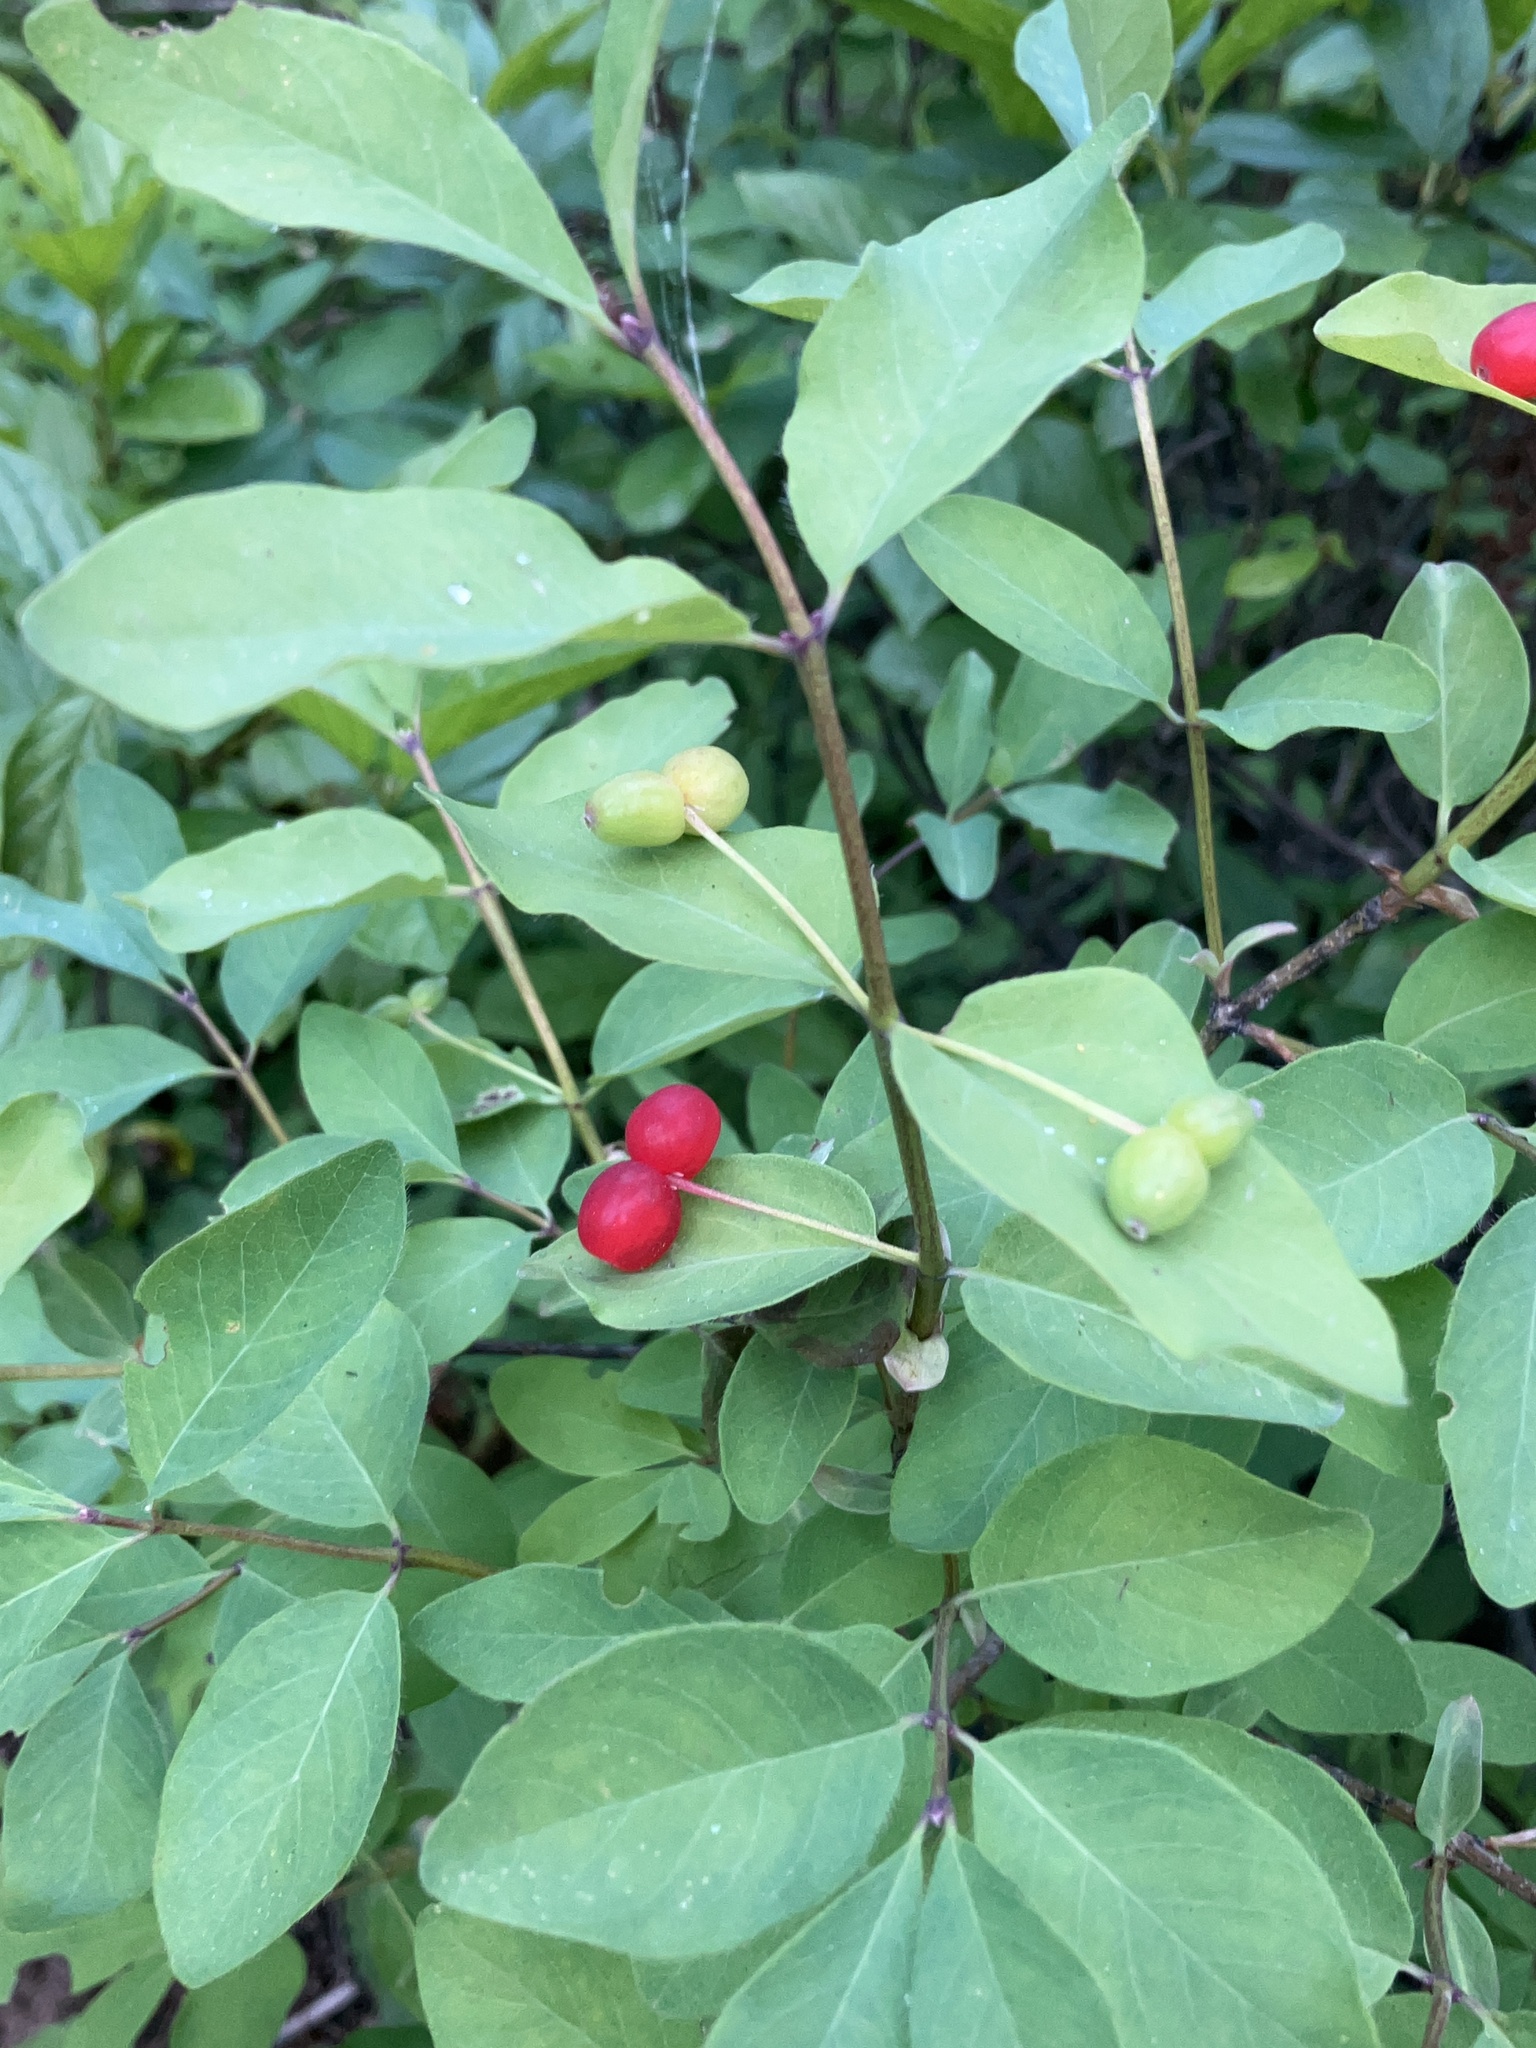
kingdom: Plantae
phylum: Tracheophyta
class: Magnoliopsida
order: Dipsacales
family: Caprifoliaceae
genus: Lonicera
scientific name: Lonicera utahensis
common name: Utah honeysuckle
